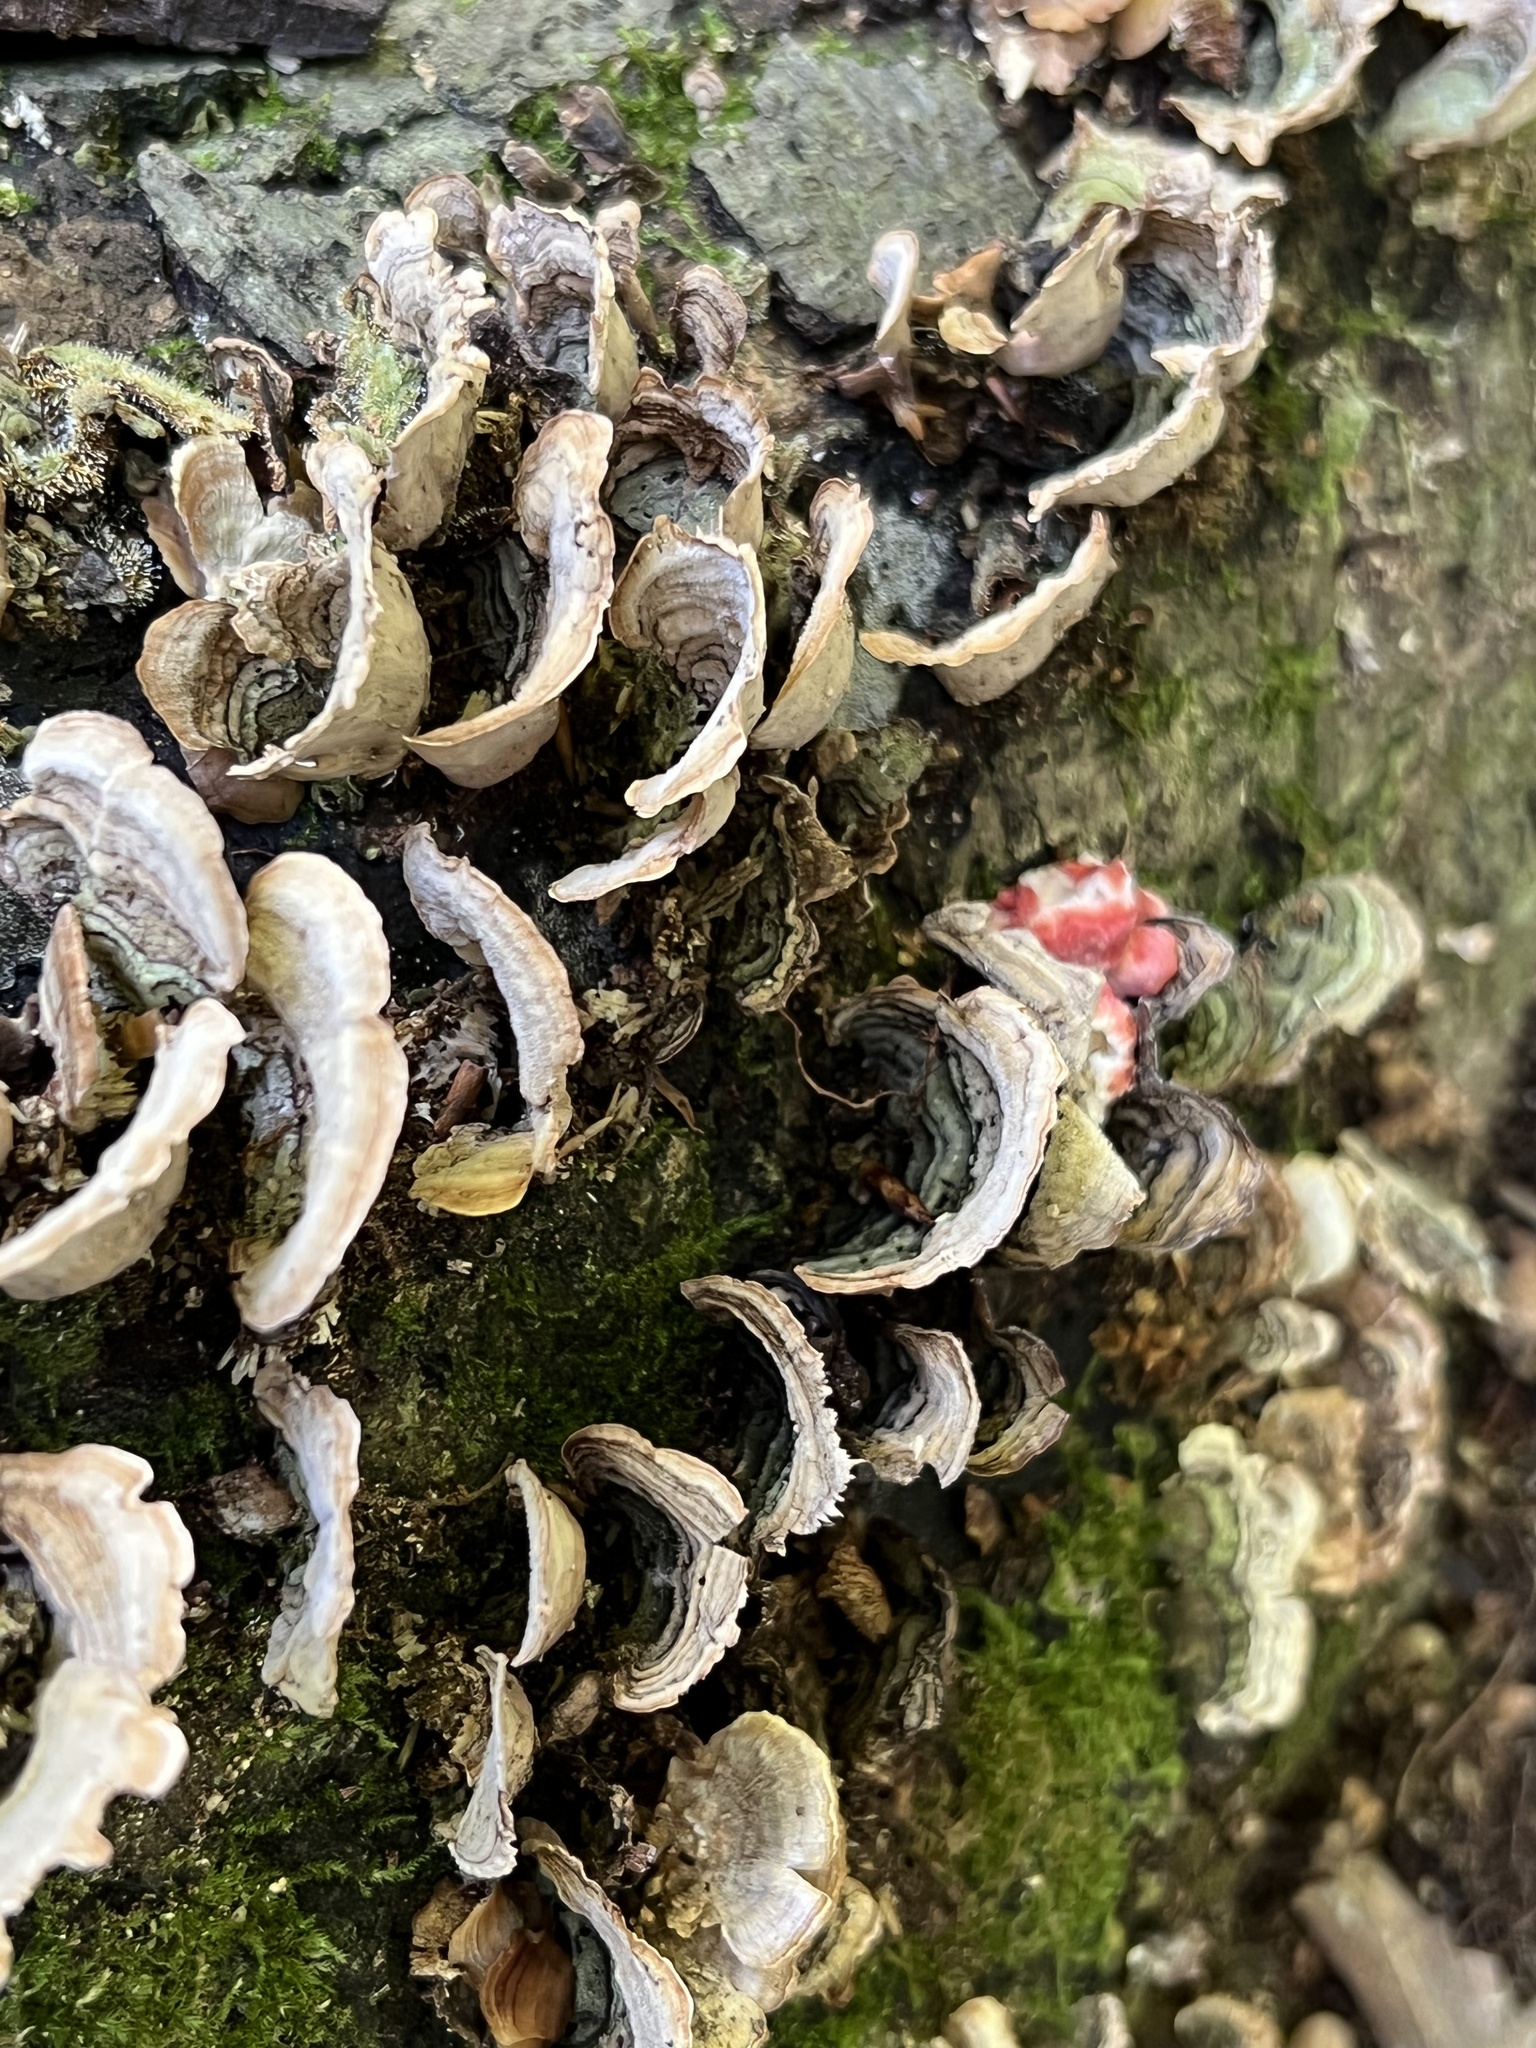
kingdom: Fungi
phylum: Basidiomycota
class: Agaricomycetes
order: Polyporales
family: Irpicaceae
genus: Byssomerulius
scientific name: Byssomerulius incarnatus
